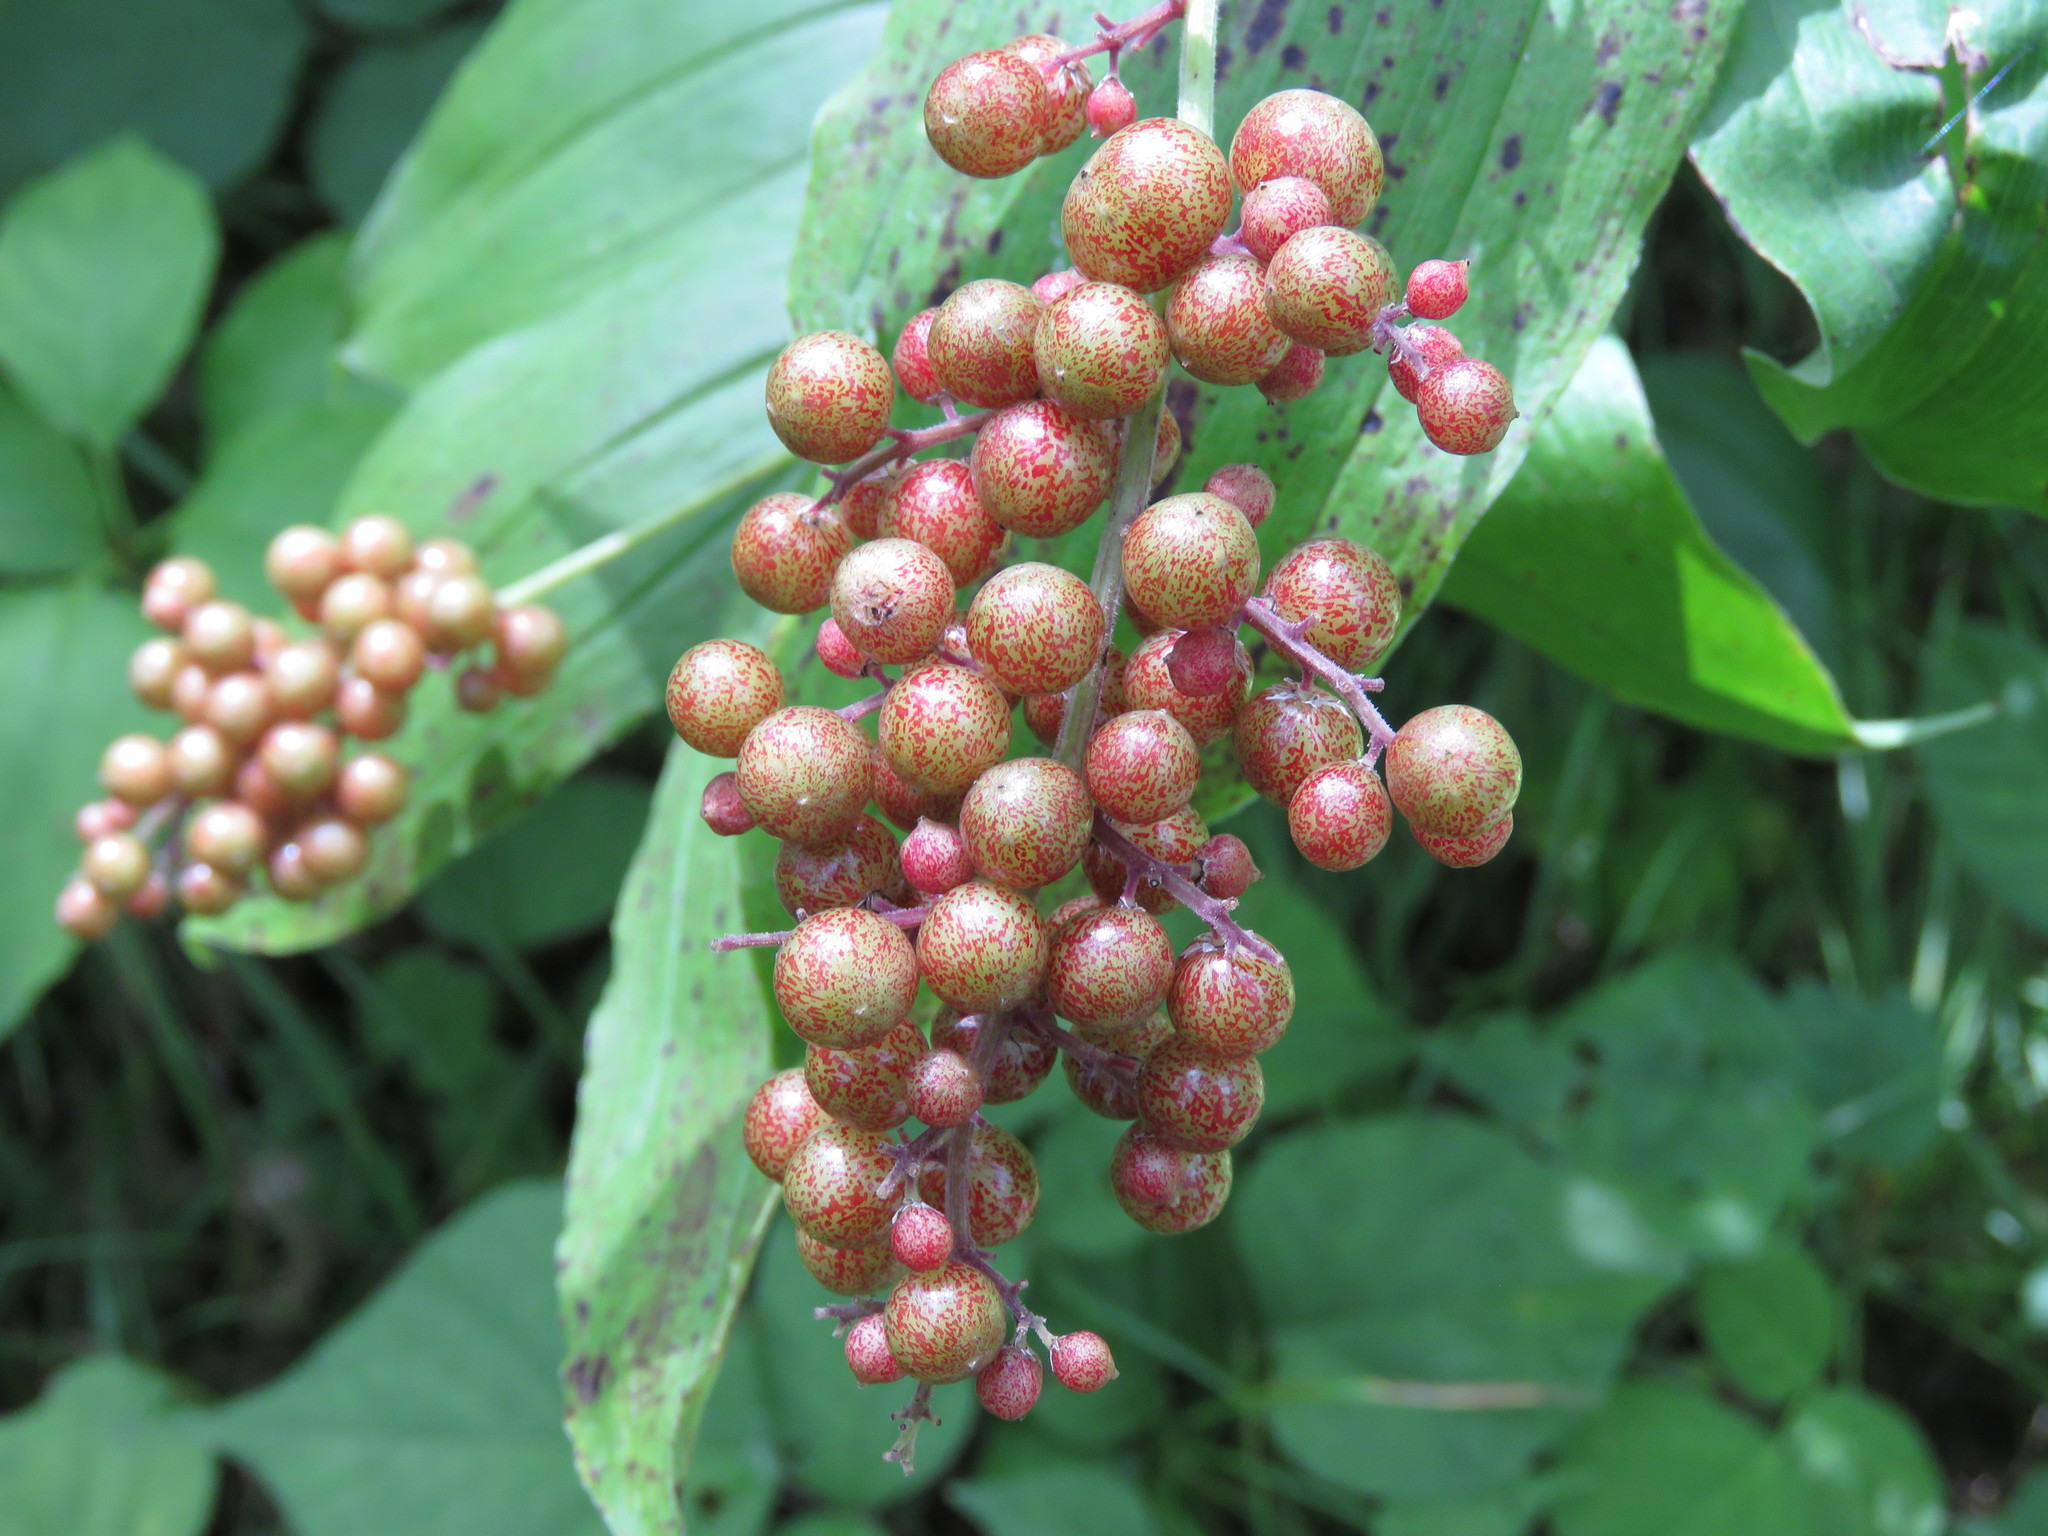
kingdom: Plantae
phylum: Tracheophyta
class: Liliopsida
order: Asparagales
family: Asparagaceae
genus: Maianthemum
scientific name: Maianthemum racemosum
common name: False spikenard
